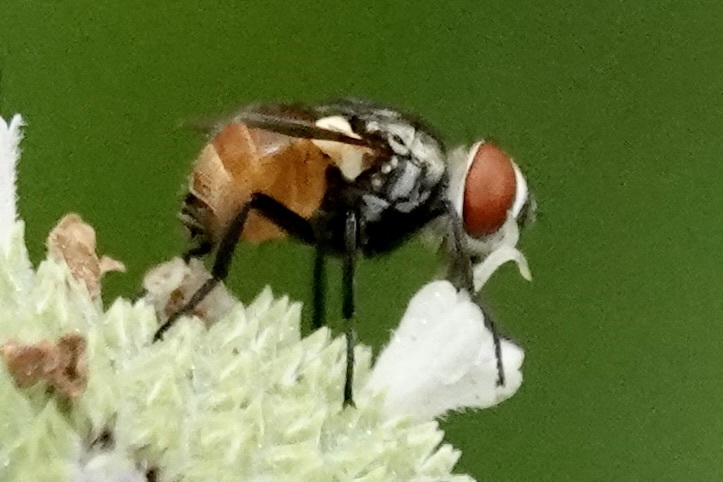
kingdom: Animalia
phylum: Arthropoda
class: Insecta
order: Diptera
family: Tachinidae
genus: Gymnoclytia
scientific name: Gymnoclytia unicolor
